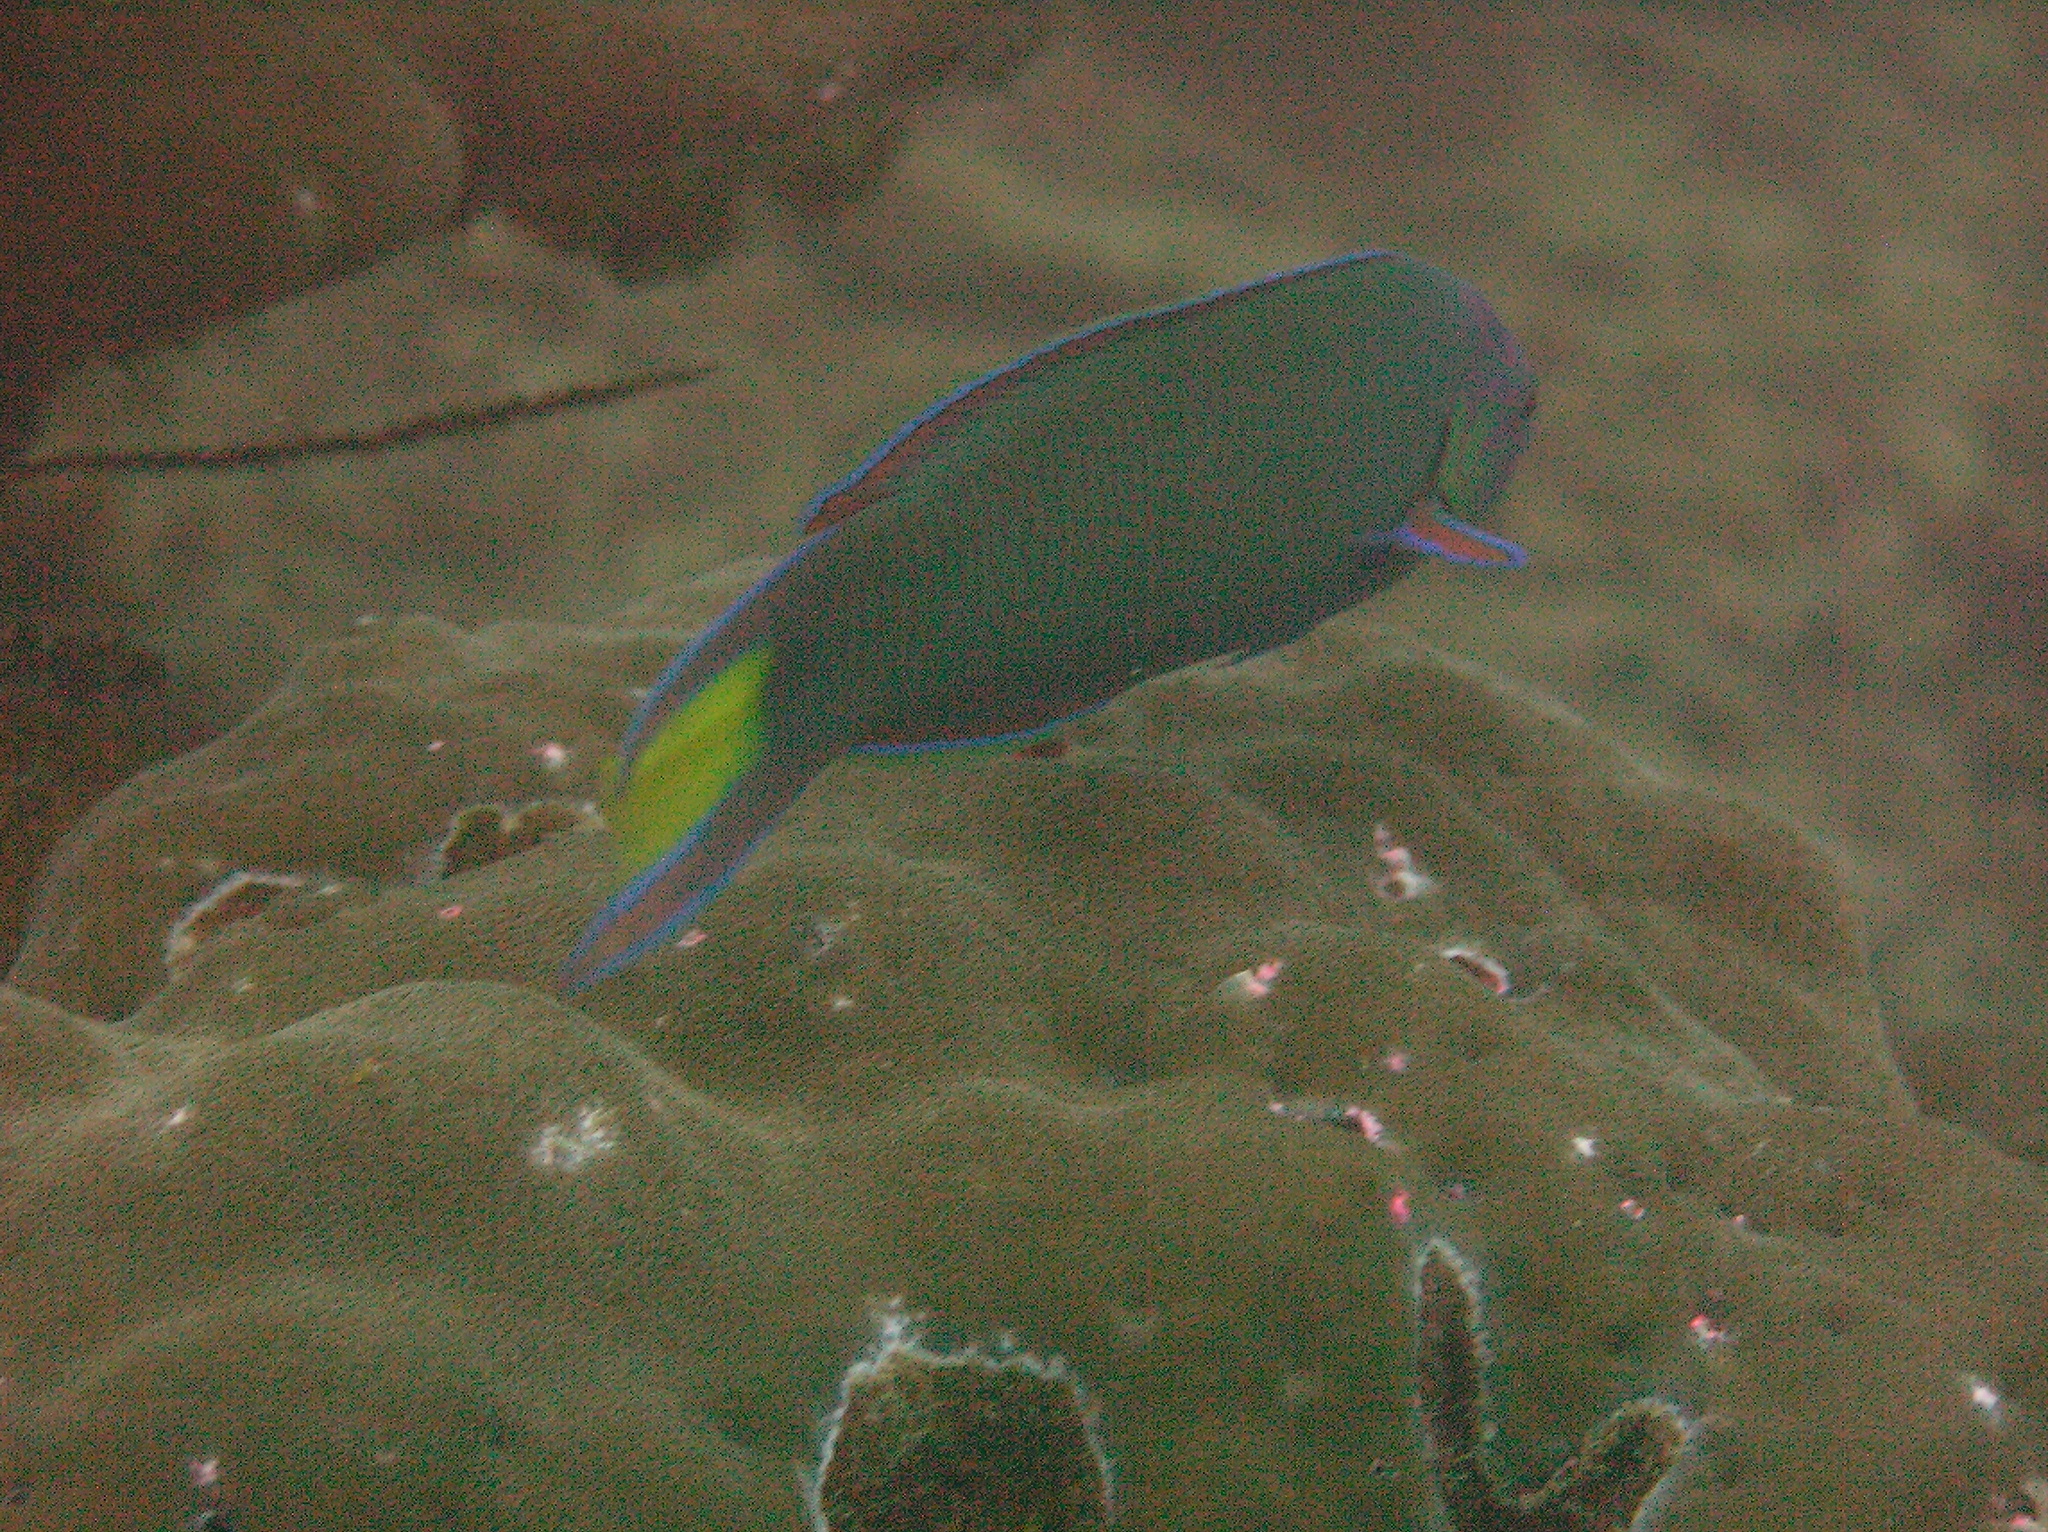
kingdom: Animalia
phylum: Chordata
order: Perciformes
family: Labridae
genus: Thalassoma
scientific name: Thalassoma lunare
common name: Blue wrasse
